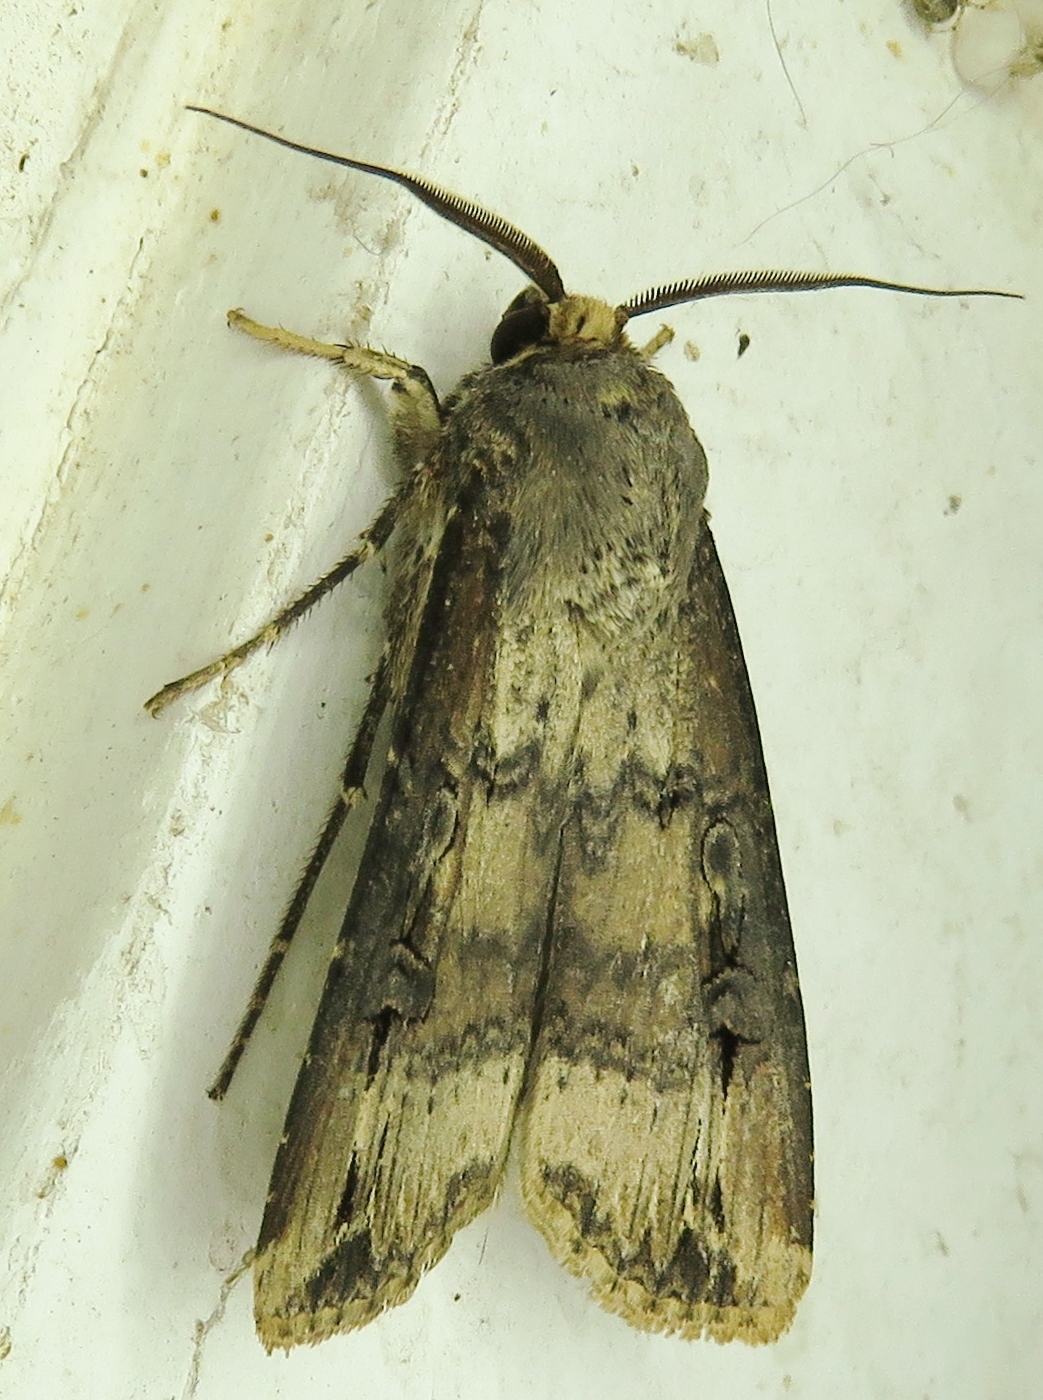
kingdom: Animalia
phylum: Arthropoda
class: Insecta
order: Lepidoptera
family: Noctuidae
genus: Agrotis
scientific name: Agrotis ipsilon
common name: Dark sword-grass
